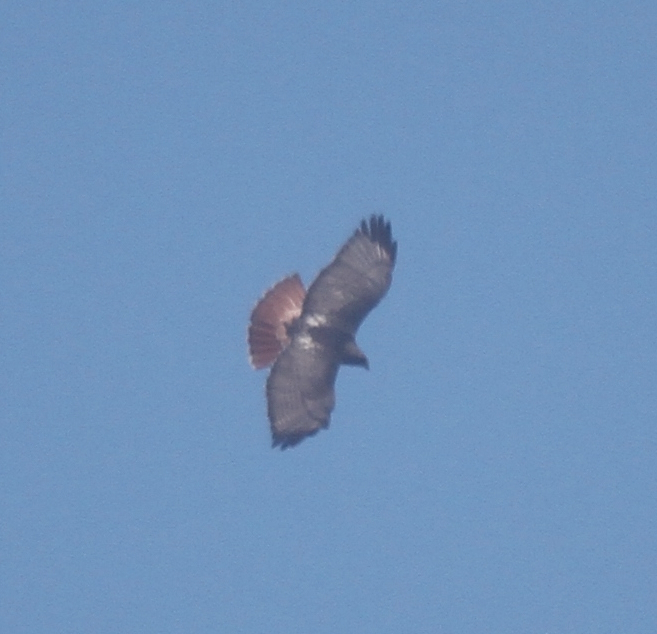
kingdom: Animalia
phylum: Chordata
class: Aves
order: Accipitriformes
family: Accipitridae
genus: Buteo
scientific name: Buteo jamaicensis
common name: Red-tailed hawk
